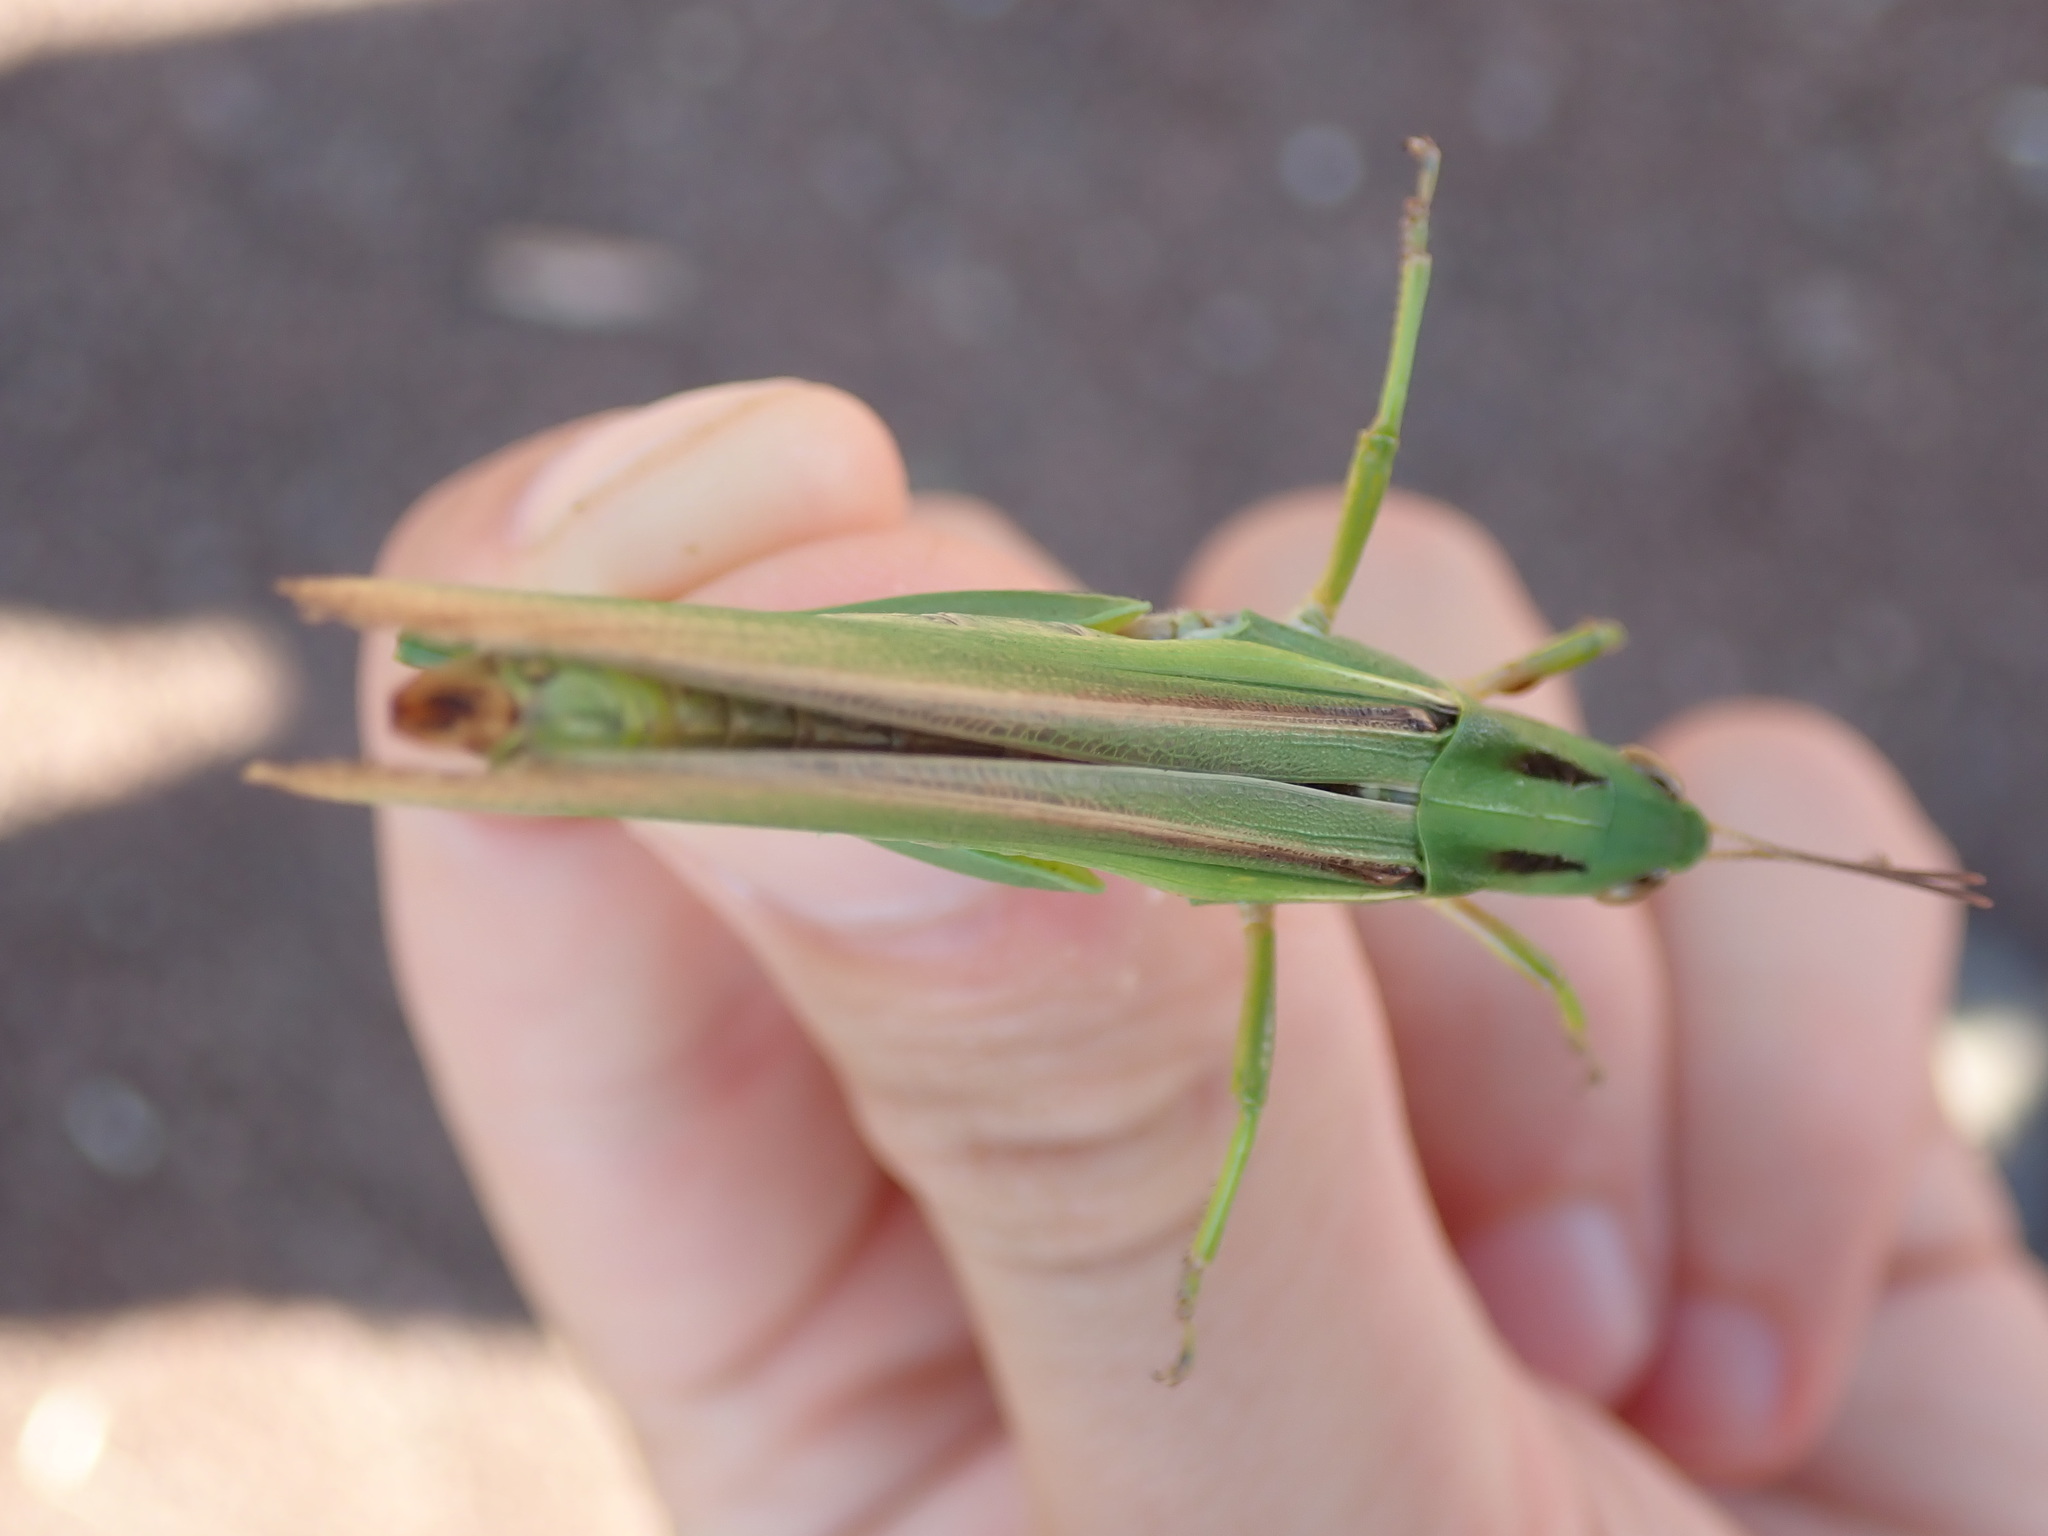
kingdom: Animalia
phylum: Arthropoda
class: Insecta
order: Orthoptera
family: Acrididae
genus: Paracinema
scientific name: Paracinema tricolor
